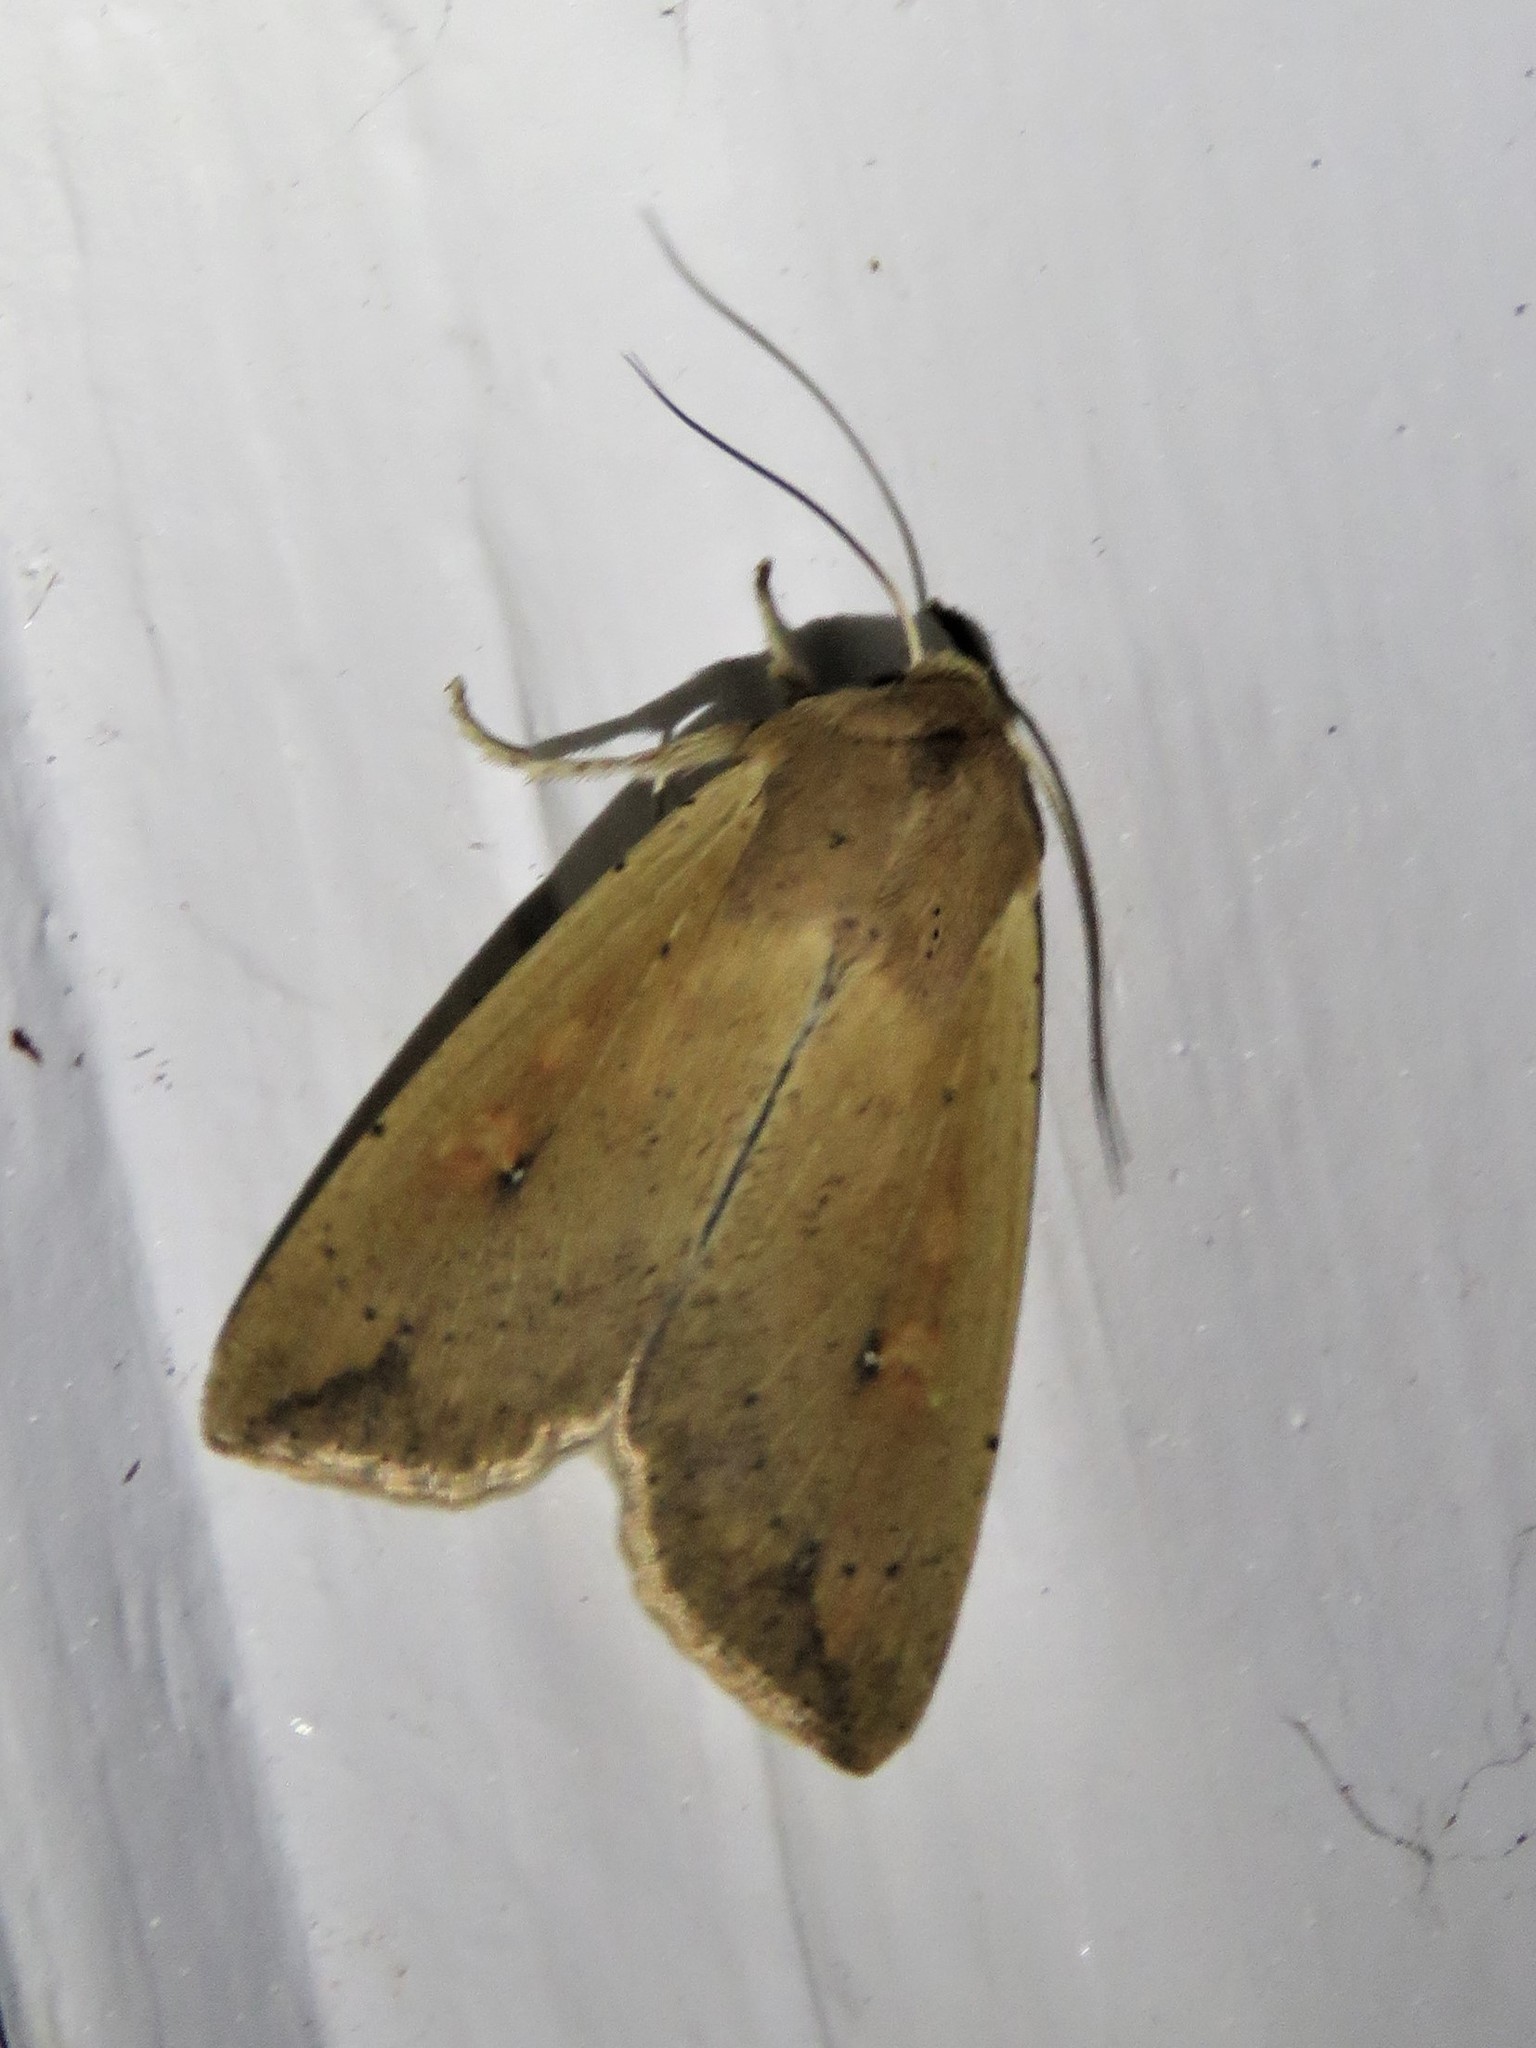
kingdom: Animalia
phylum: Arthropoda
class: Insecta
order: Lepidoptera
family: Noctuidae
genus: Mythimna
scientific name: Mythimna unipuncta
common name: White-speck
